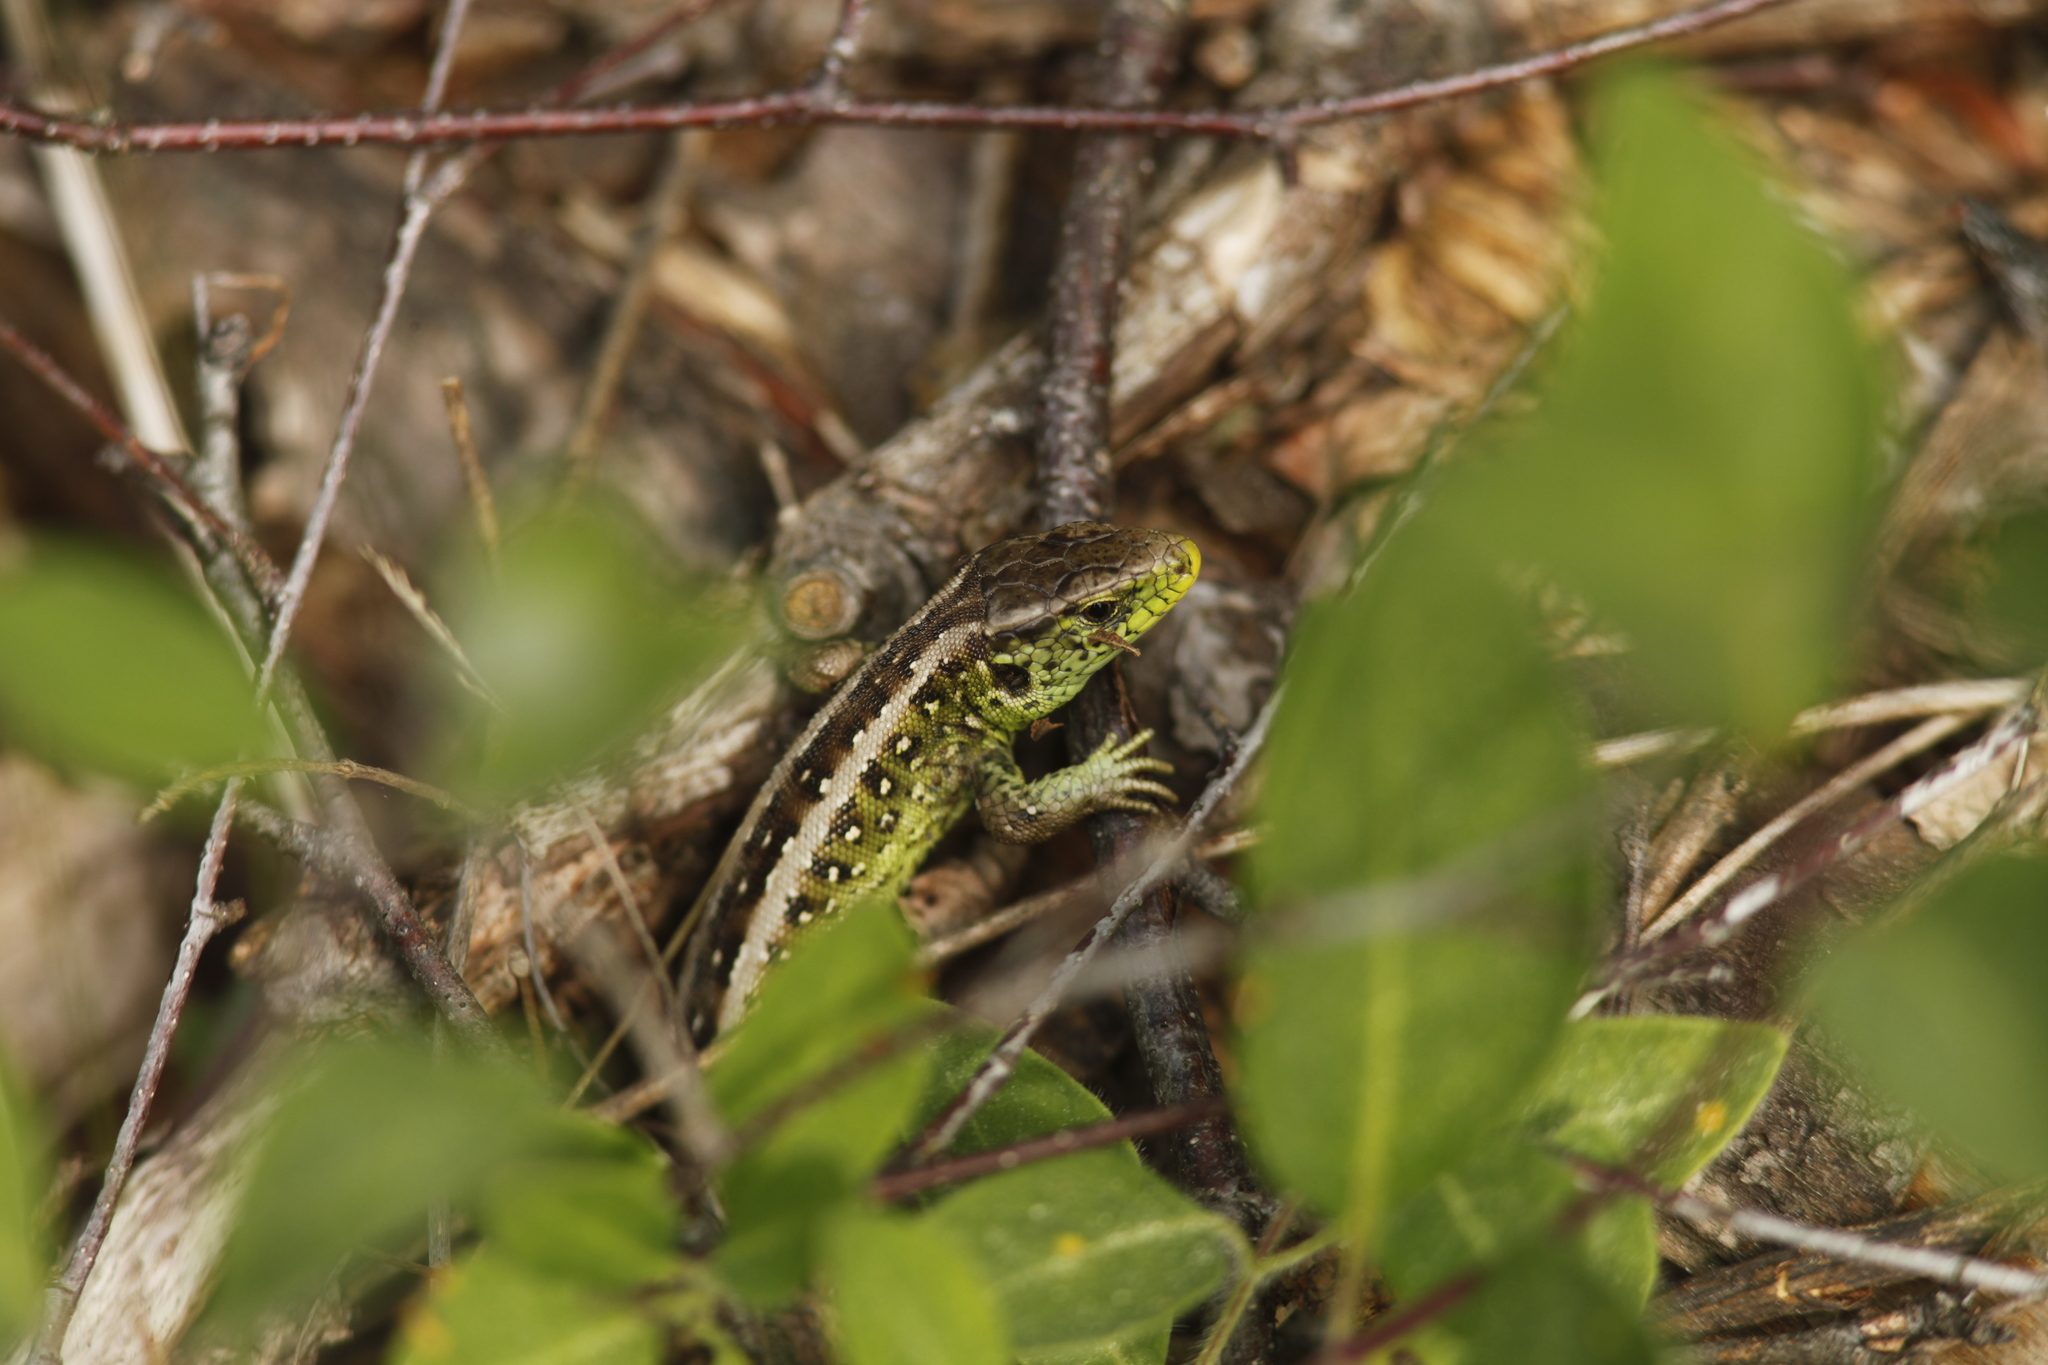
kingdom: Animalia
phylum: Chordata
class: Squamata
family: Lacertidae
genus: Lacerta
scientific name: Lacerta agilis
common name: Sand lizard
